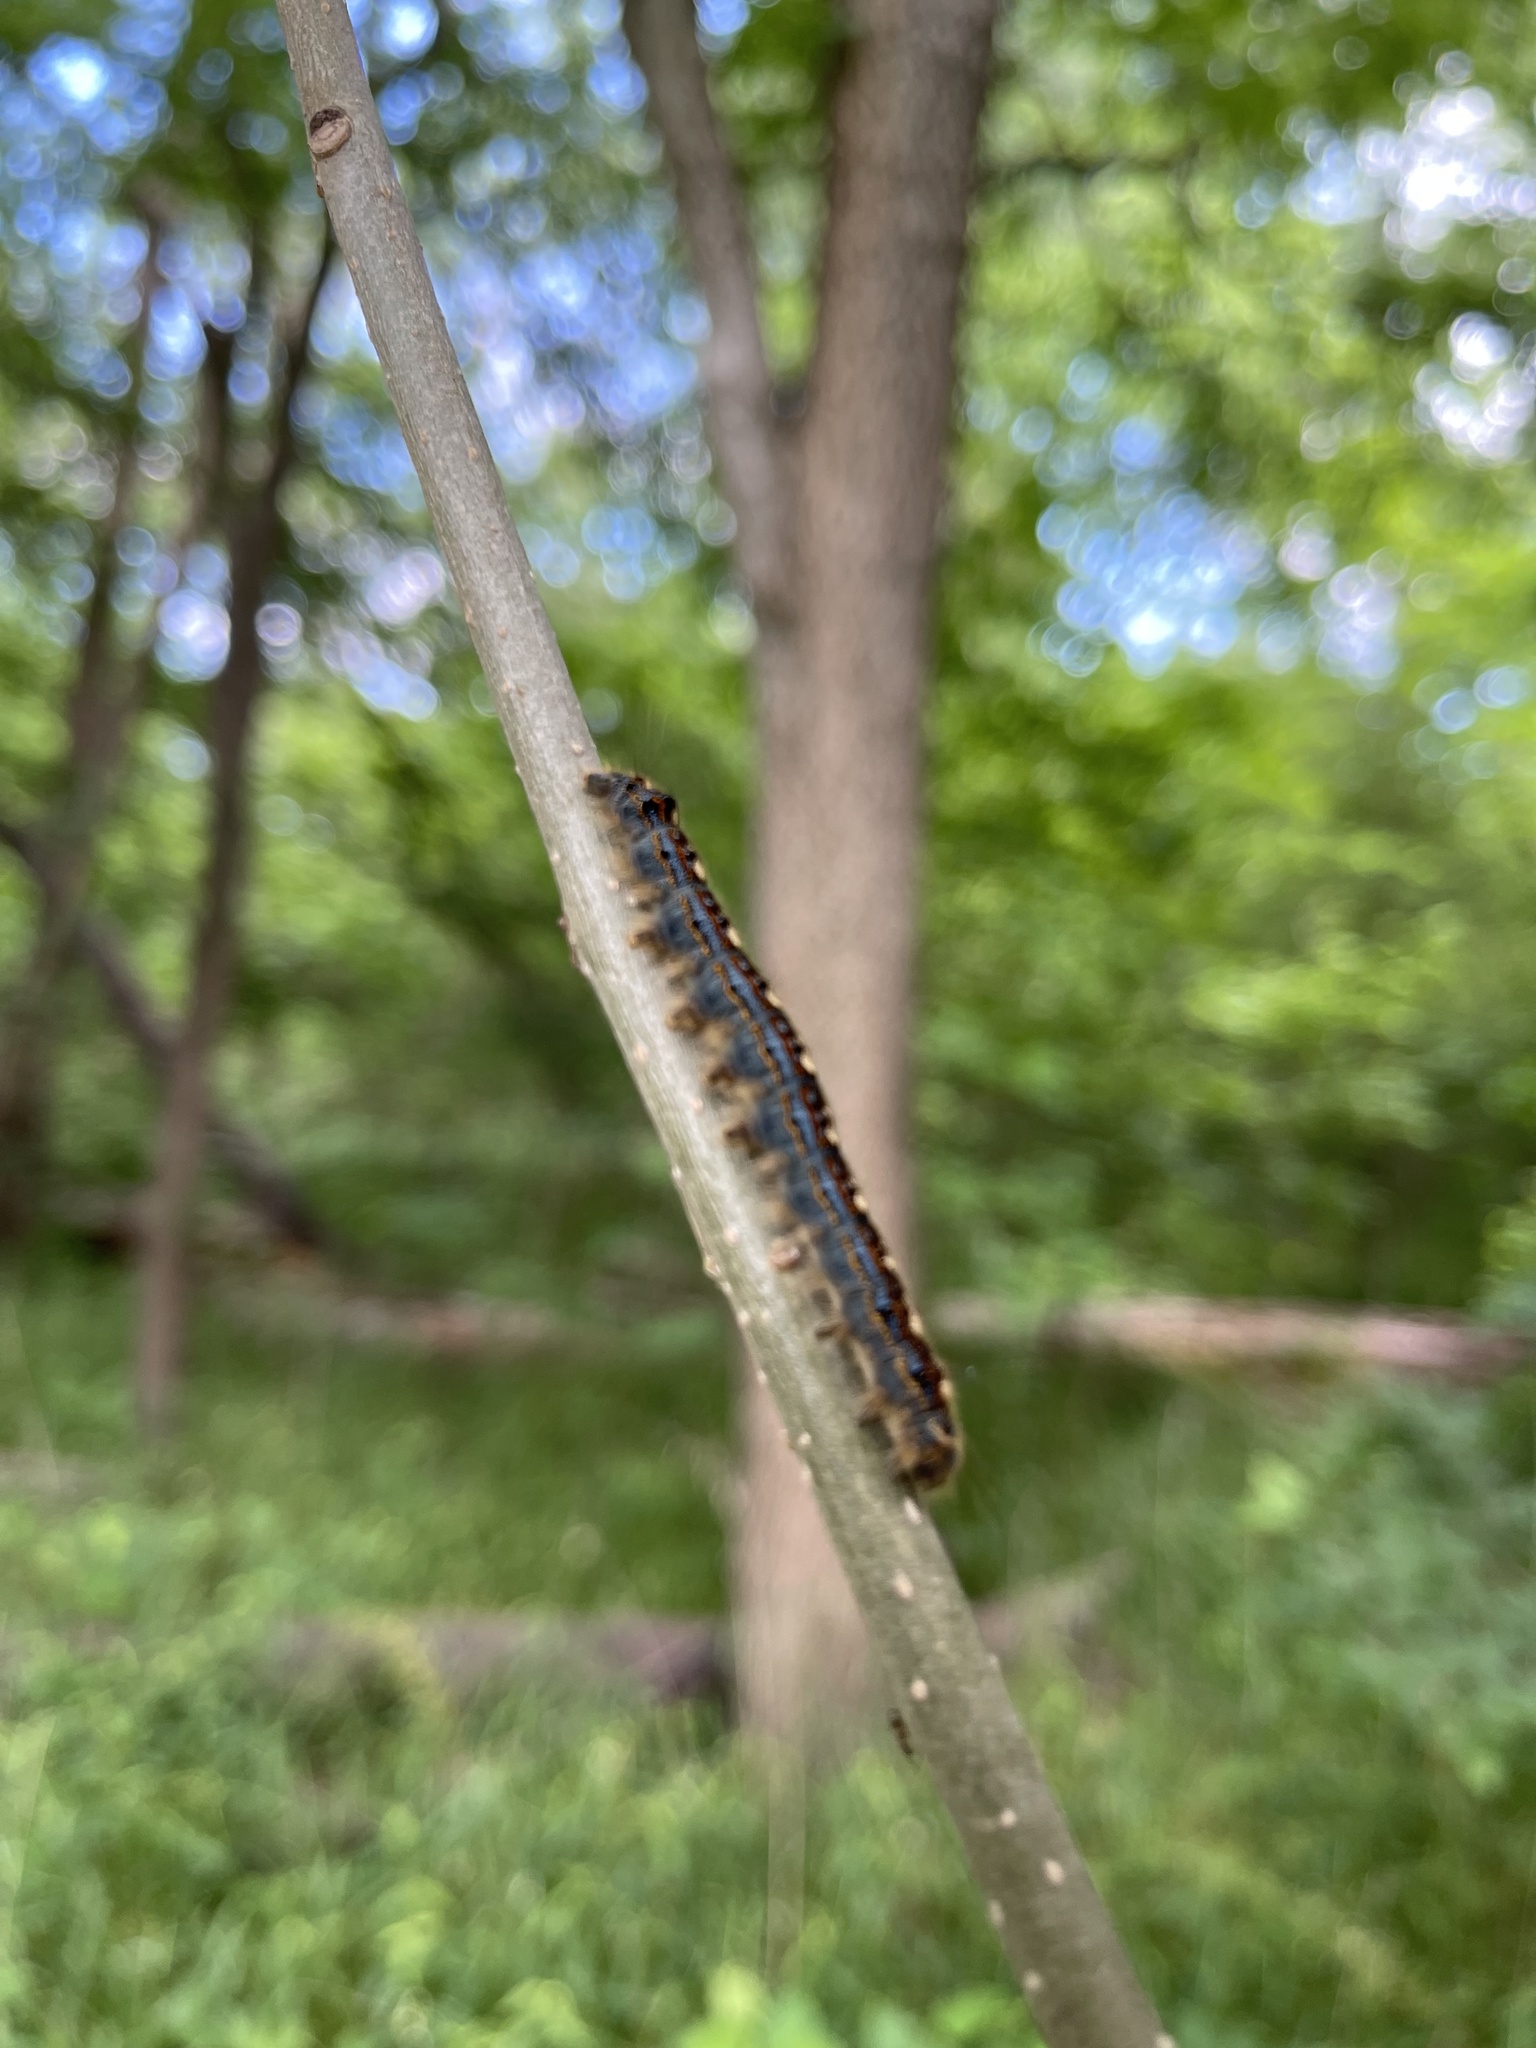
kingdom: Animalia
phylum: Arthropoda
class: Insecta
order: Lepidoptera
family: Lasiocampidae
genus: Malacosoma
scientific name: Malacosoma disstria
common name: Forest tent caterpillar
